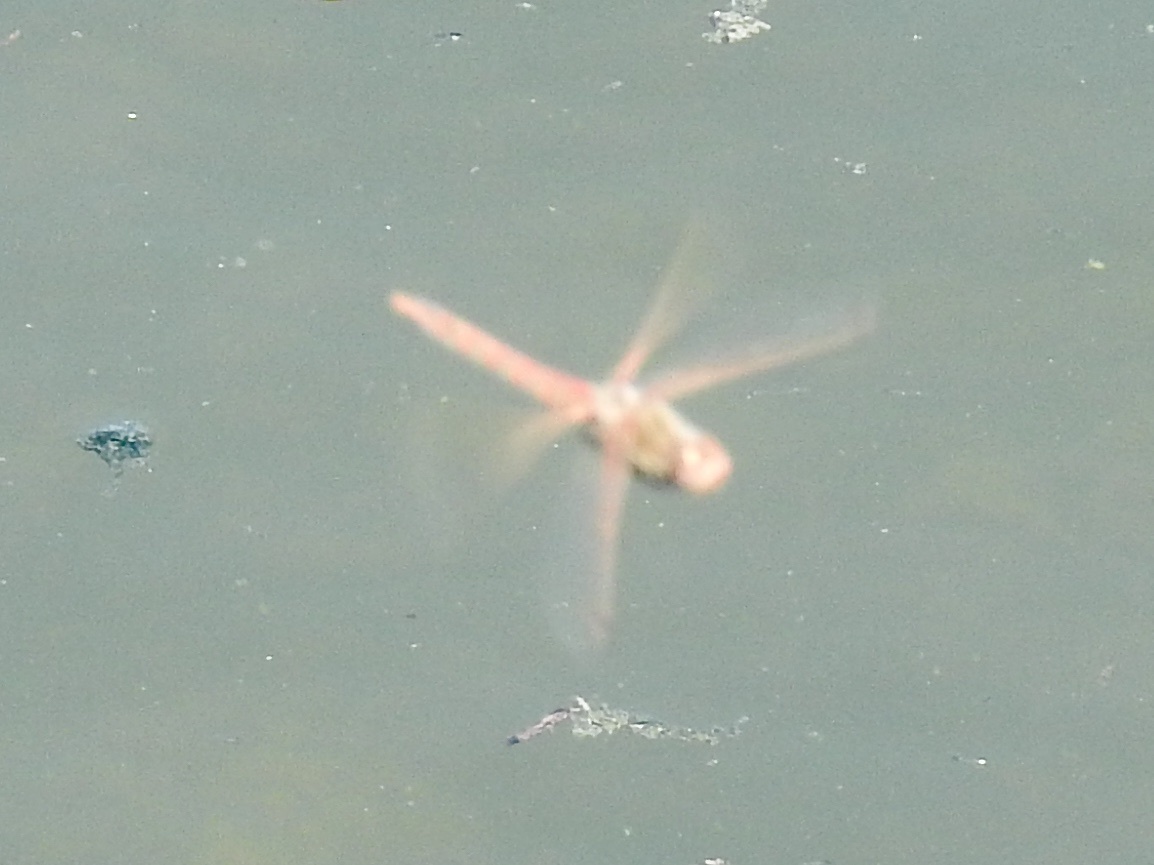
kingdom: Animalia
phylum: Arthropoda
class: Insecta
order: Odonata
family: Libellulidae
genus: Sympetrum
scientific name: Sympetrum corruptum
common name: Variegated meadowhawk
